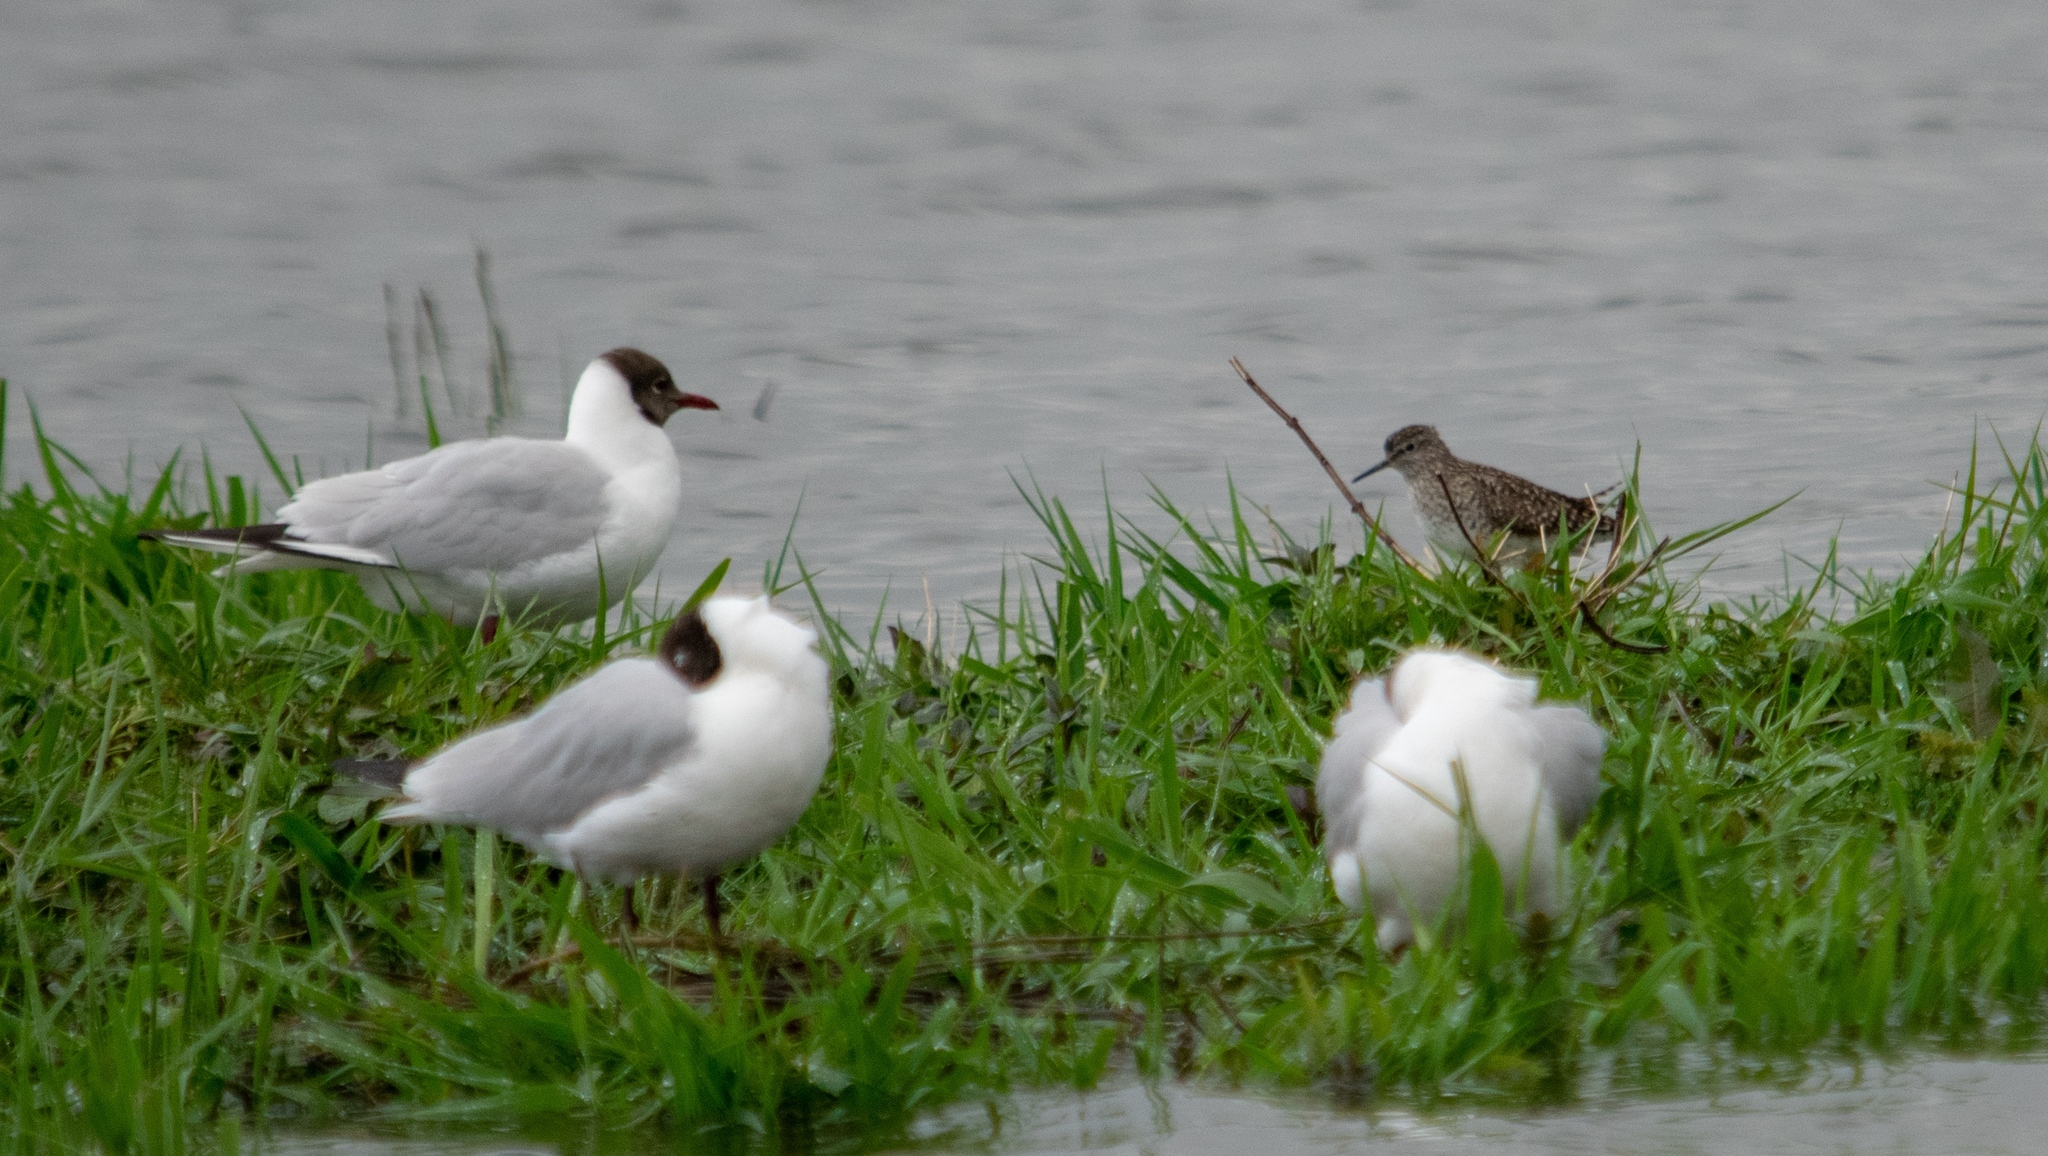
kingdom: Animalia
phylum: Chordata
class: Aves
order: Charadriiformes
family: Laridae
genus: Chroicocephalus
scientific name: Chroicocephalus ridibundus
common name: Black-headed gull
